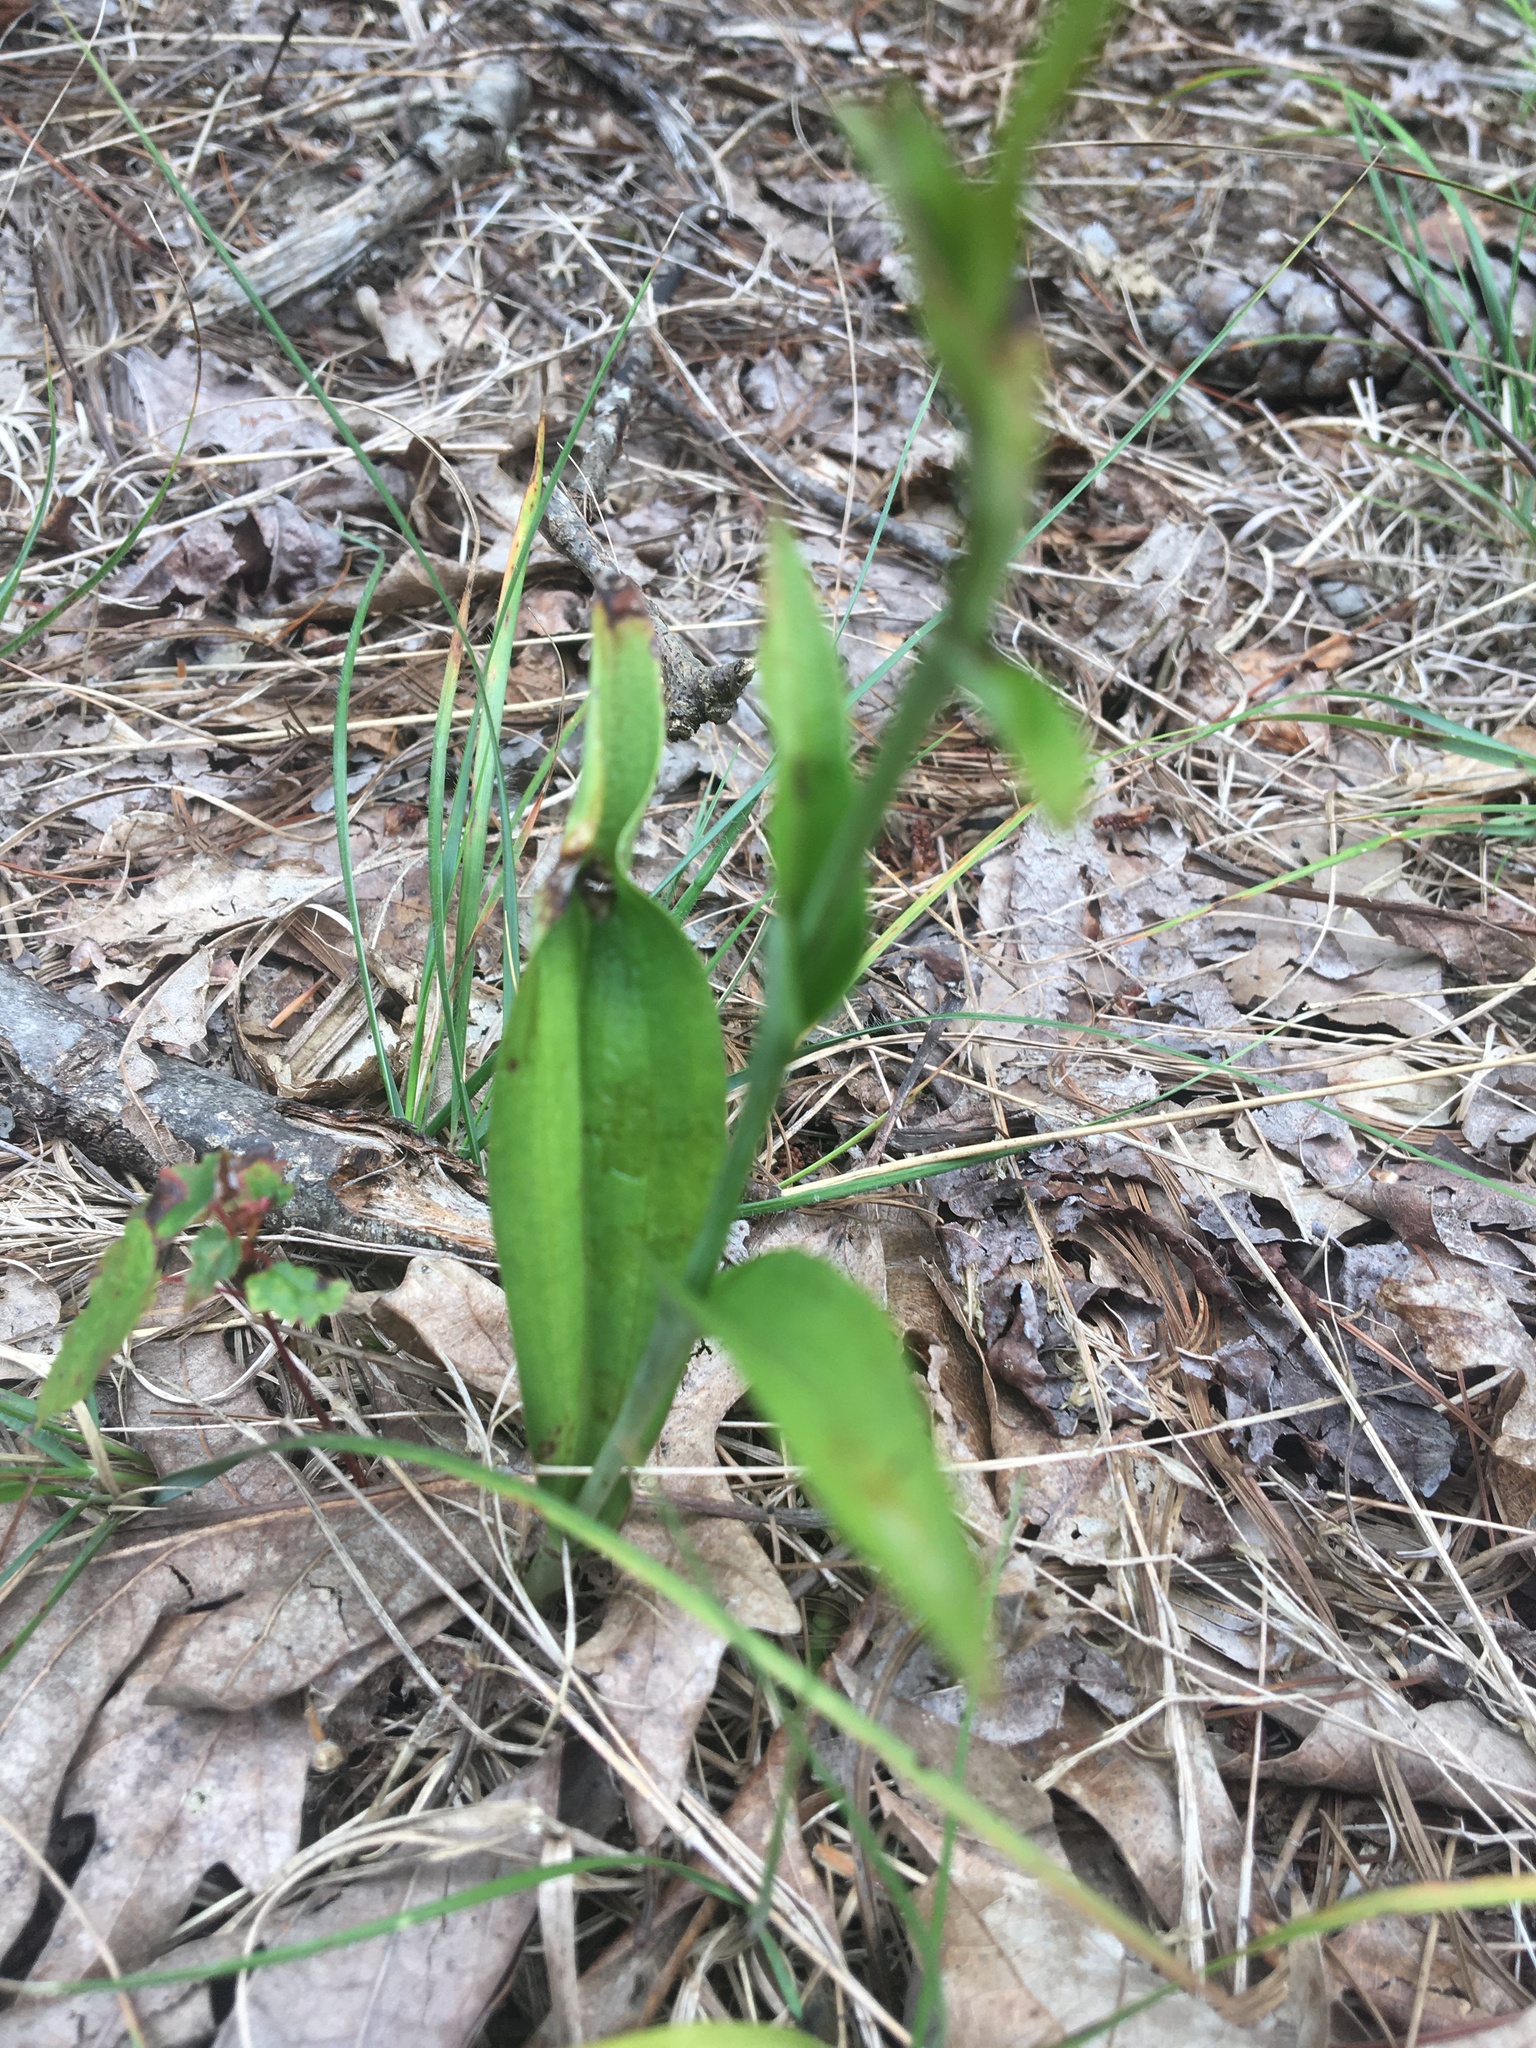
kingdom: Plantae
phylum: Tracheophyta
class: Liliopsida
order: Asparagales
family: Orchidaceae
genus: Platanthera
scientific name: Platanthera ciliaris
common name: Yellow fringed orchid
